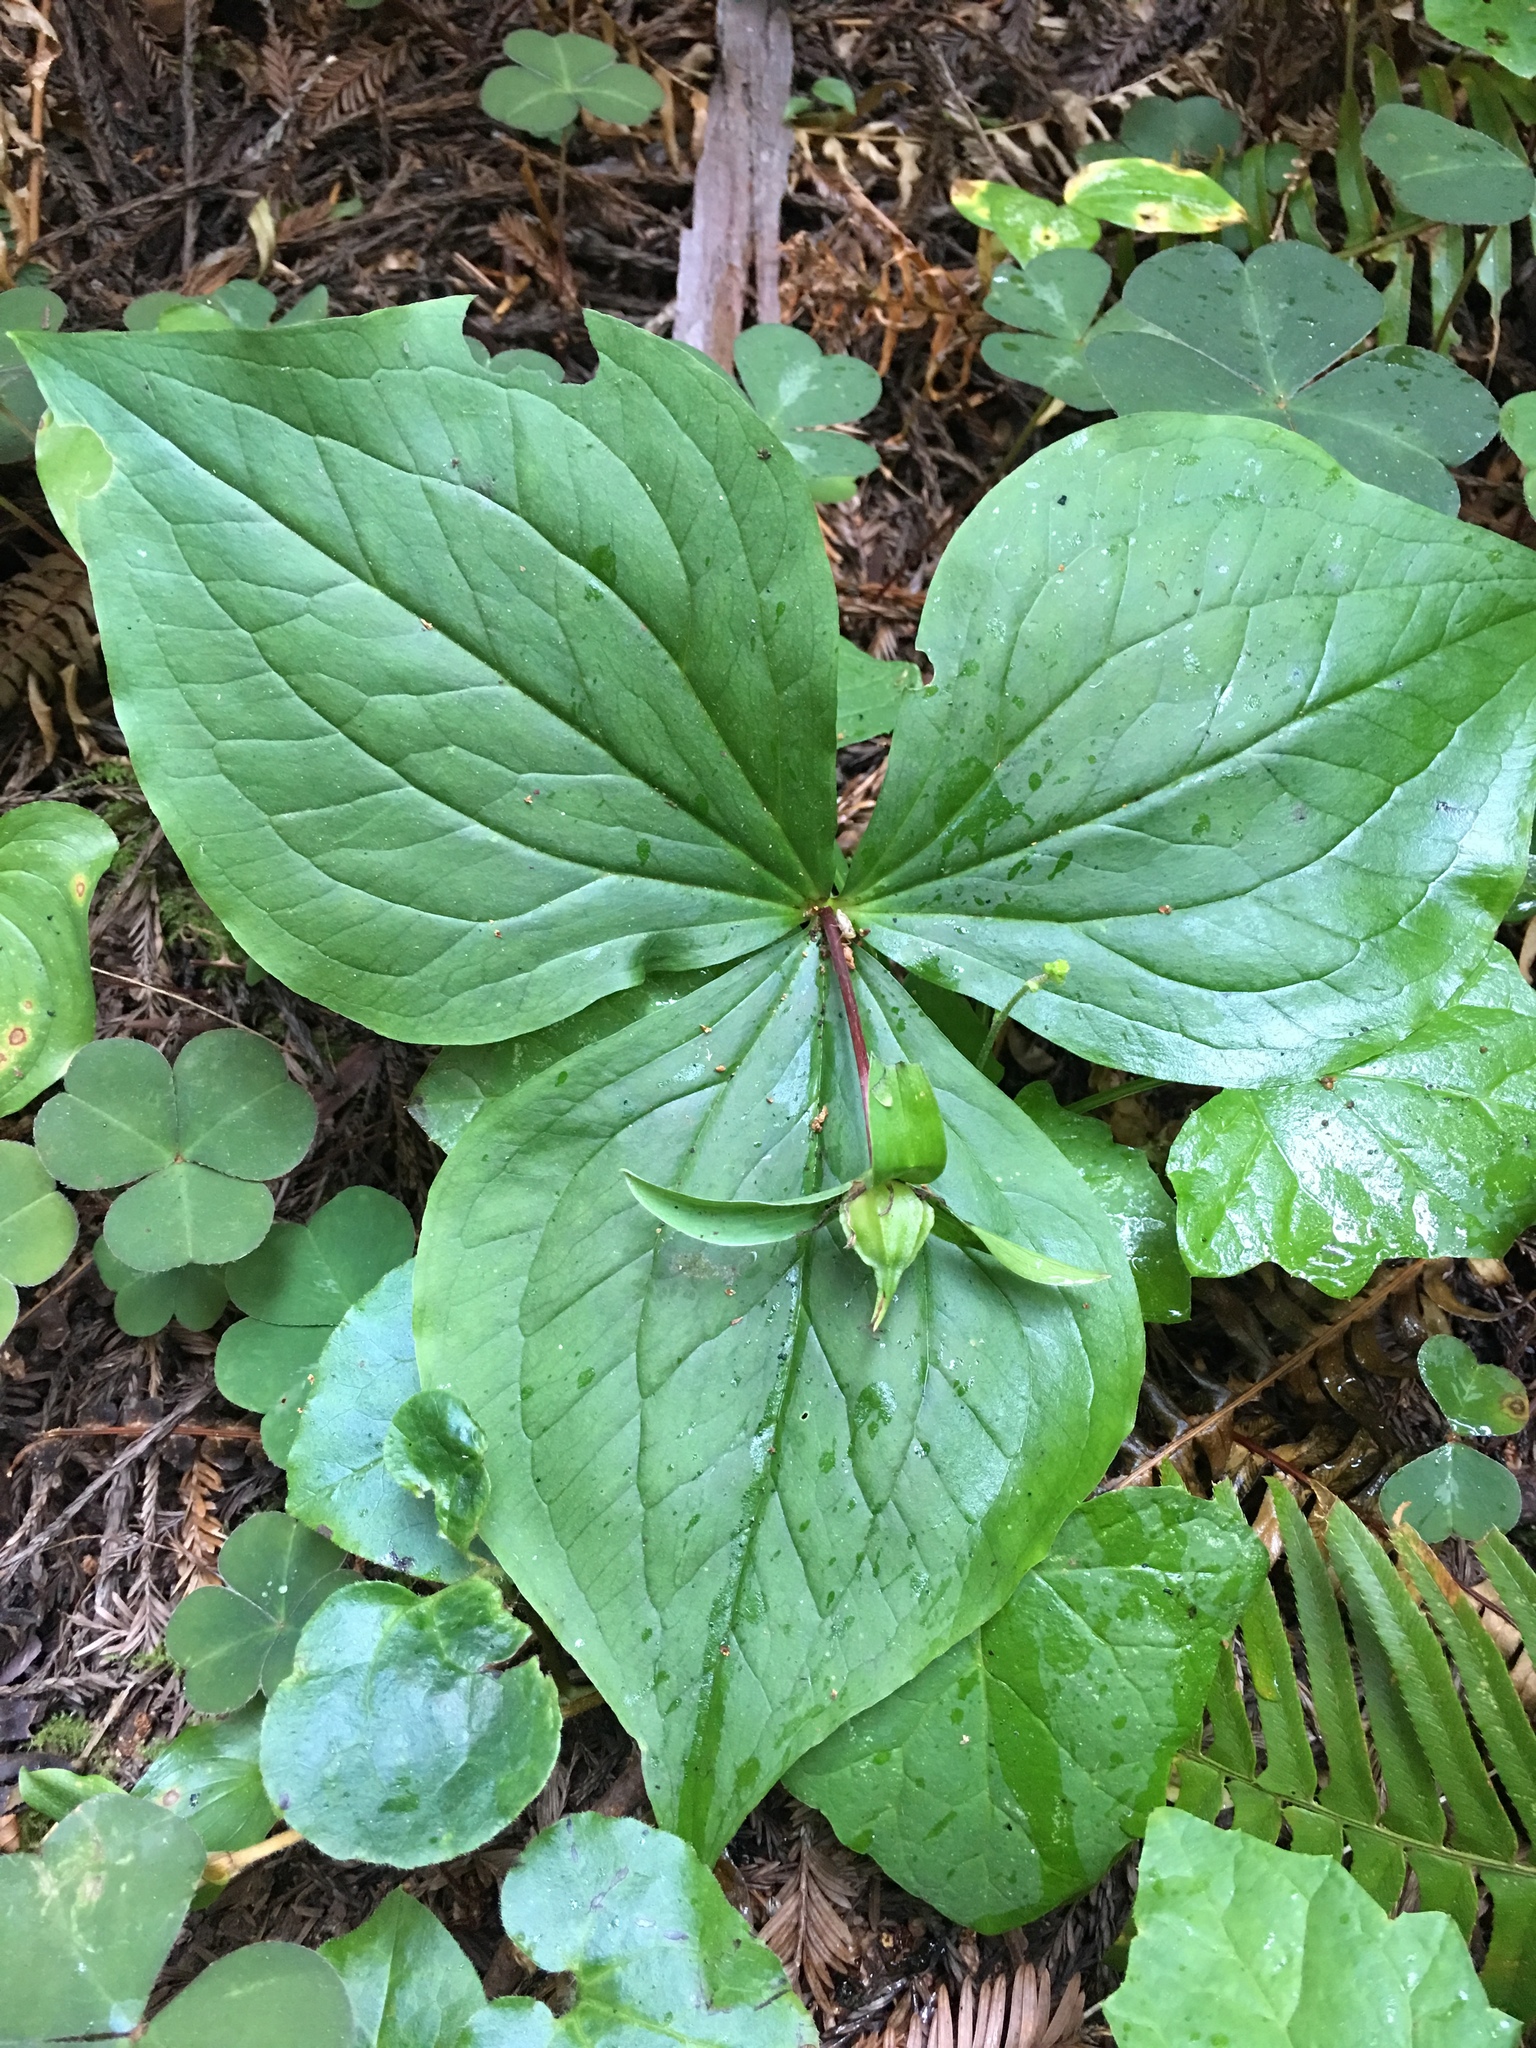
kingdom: Plantae
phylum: Tracheophyta
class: Liliopsida
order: Liliales
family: Melanthiaceae
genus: Trillium
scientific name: Trillium ovatum
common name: Pacific trillium
